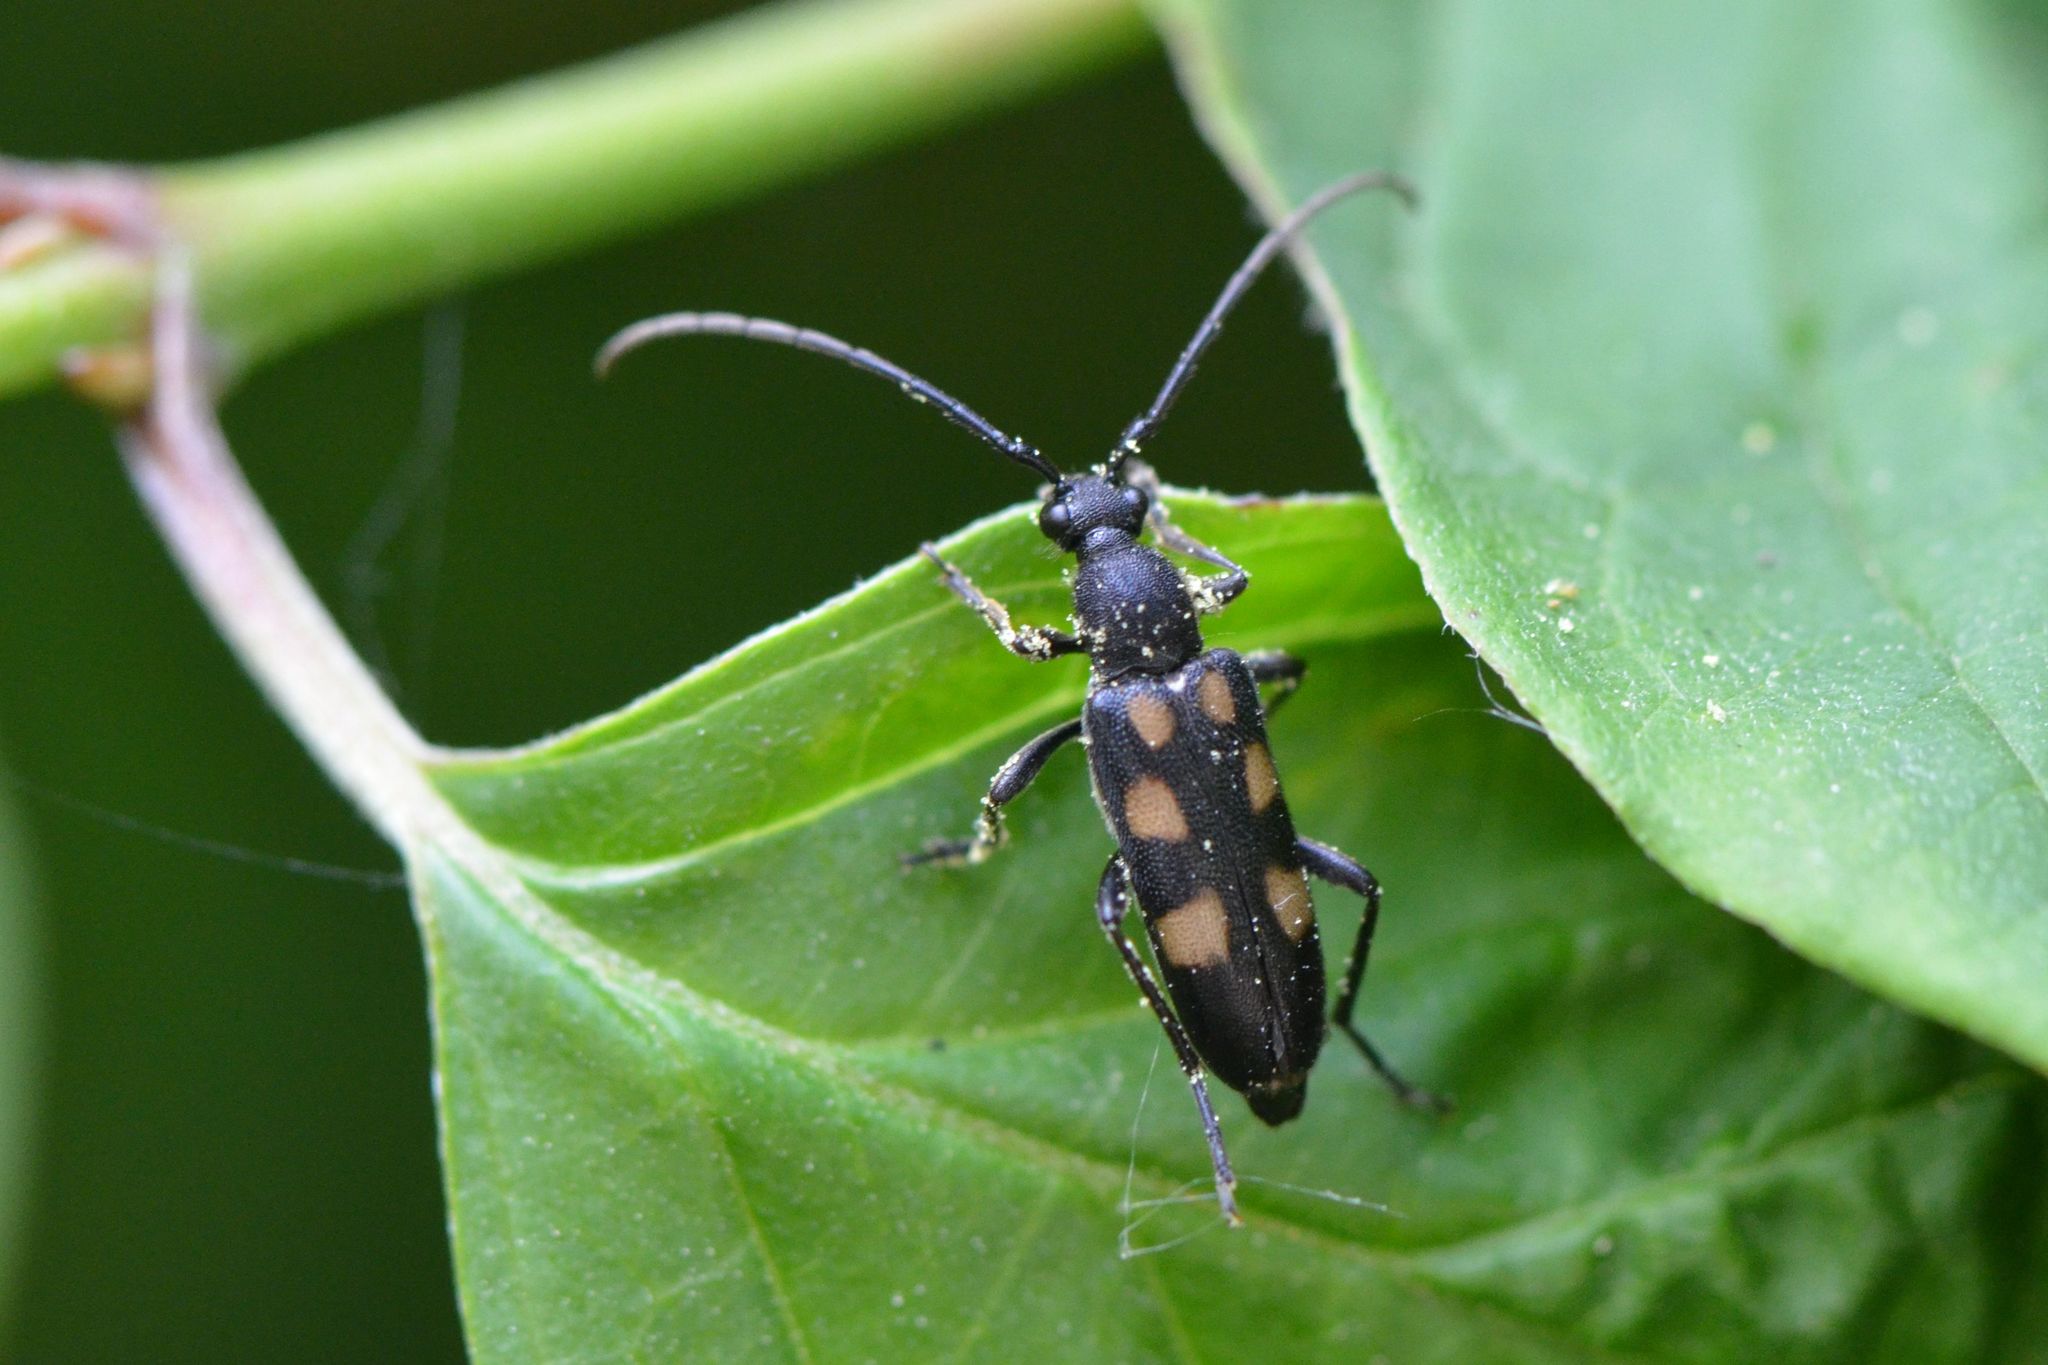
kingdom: Animalia
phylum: Arthropoda
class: Insecta
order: Coleoptera
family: Cerambycidae
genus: Anoplodera
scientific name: Anoplodera sexguttata
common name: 6 spotted longhorn
